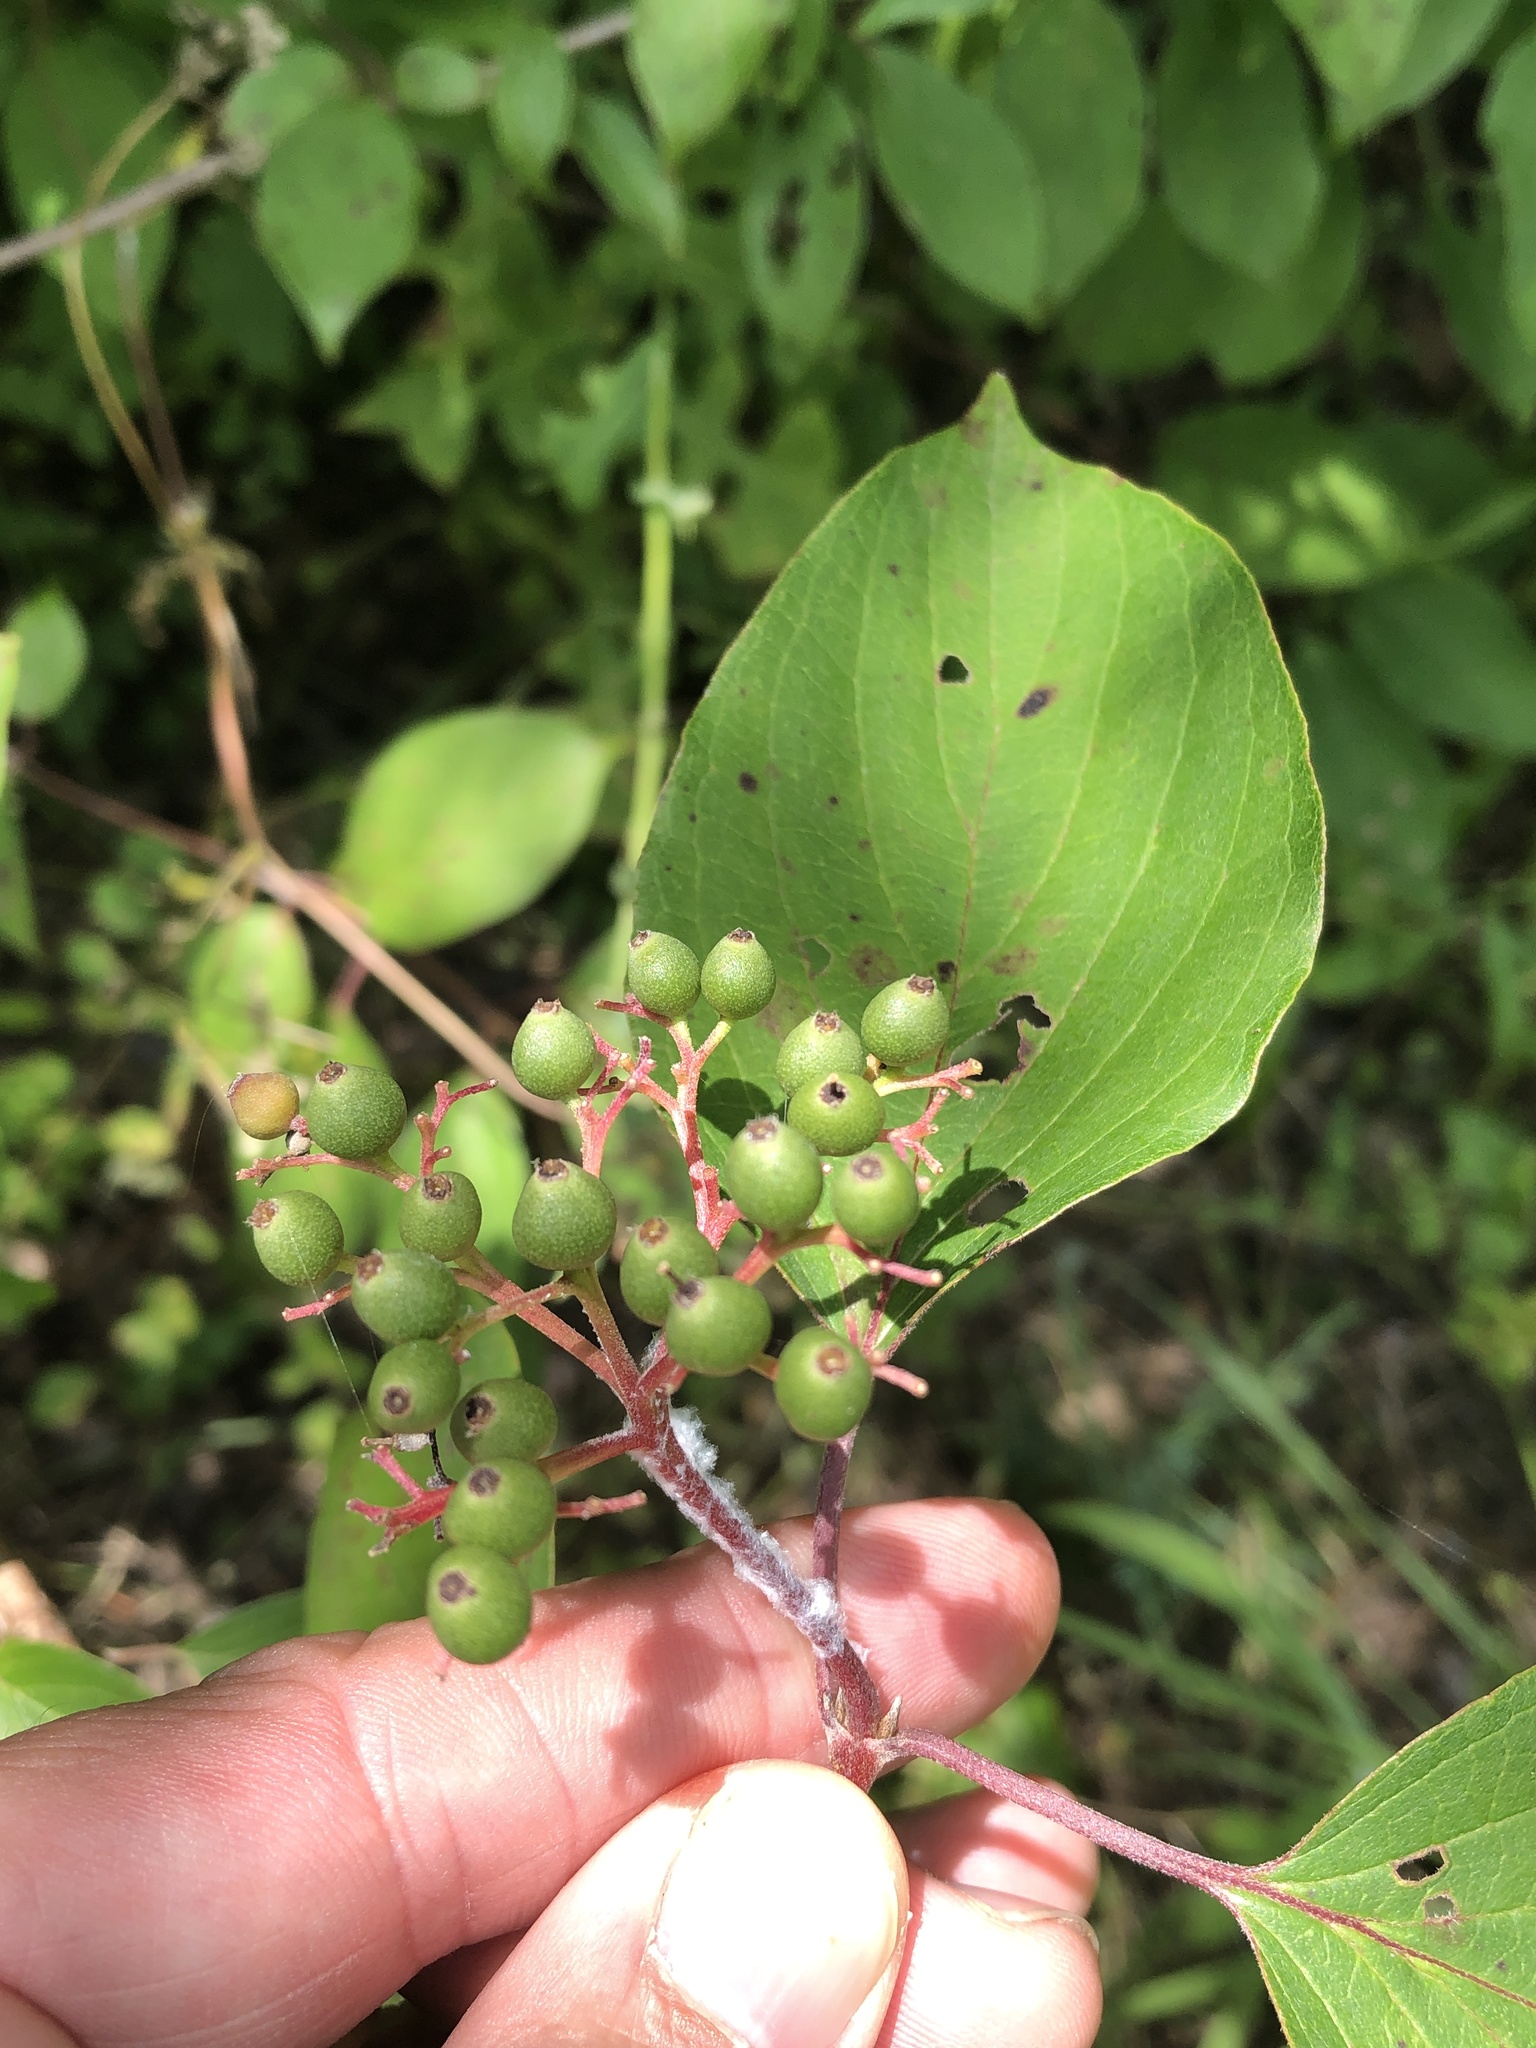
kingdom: Plantae
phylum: Tracheophyta
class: Magnoliopsida
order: Cornales
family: Cornaceae
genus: Cornus
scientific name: Cornus drummondii
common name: Rough-leaf dogwood
